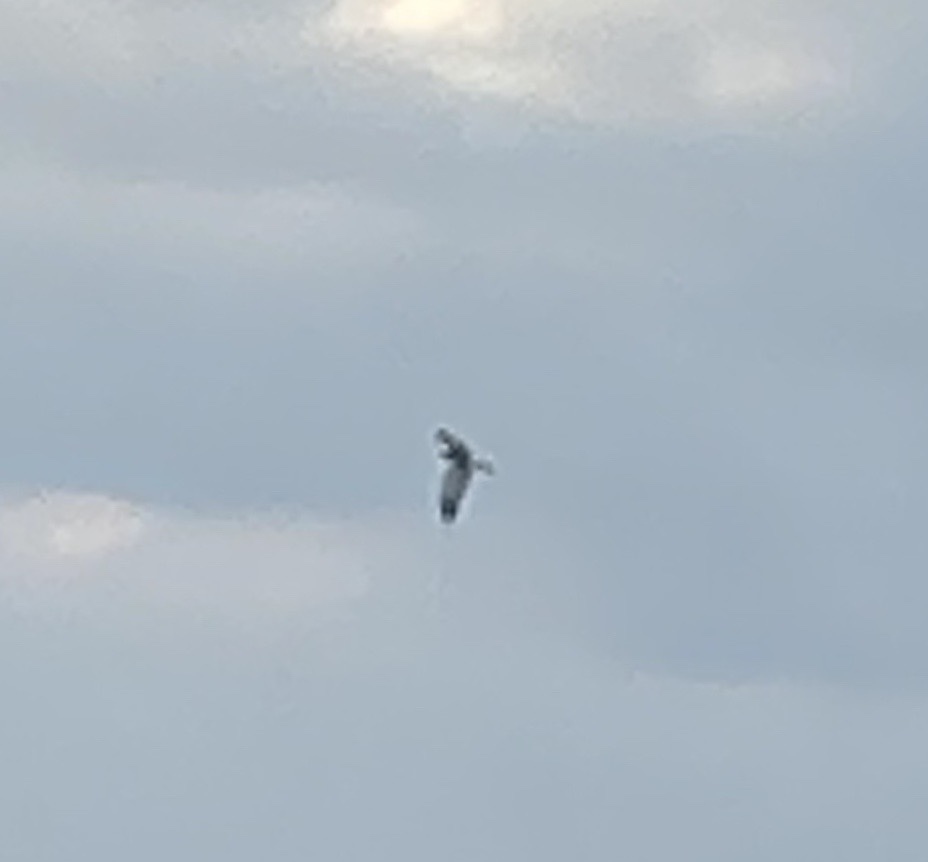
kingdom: Animalia
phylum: Chordata
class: Aves
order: Accipitriformes
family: Accipitridae
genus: Circus
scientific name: Circus aeruginosus
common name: Western marsh harrier
